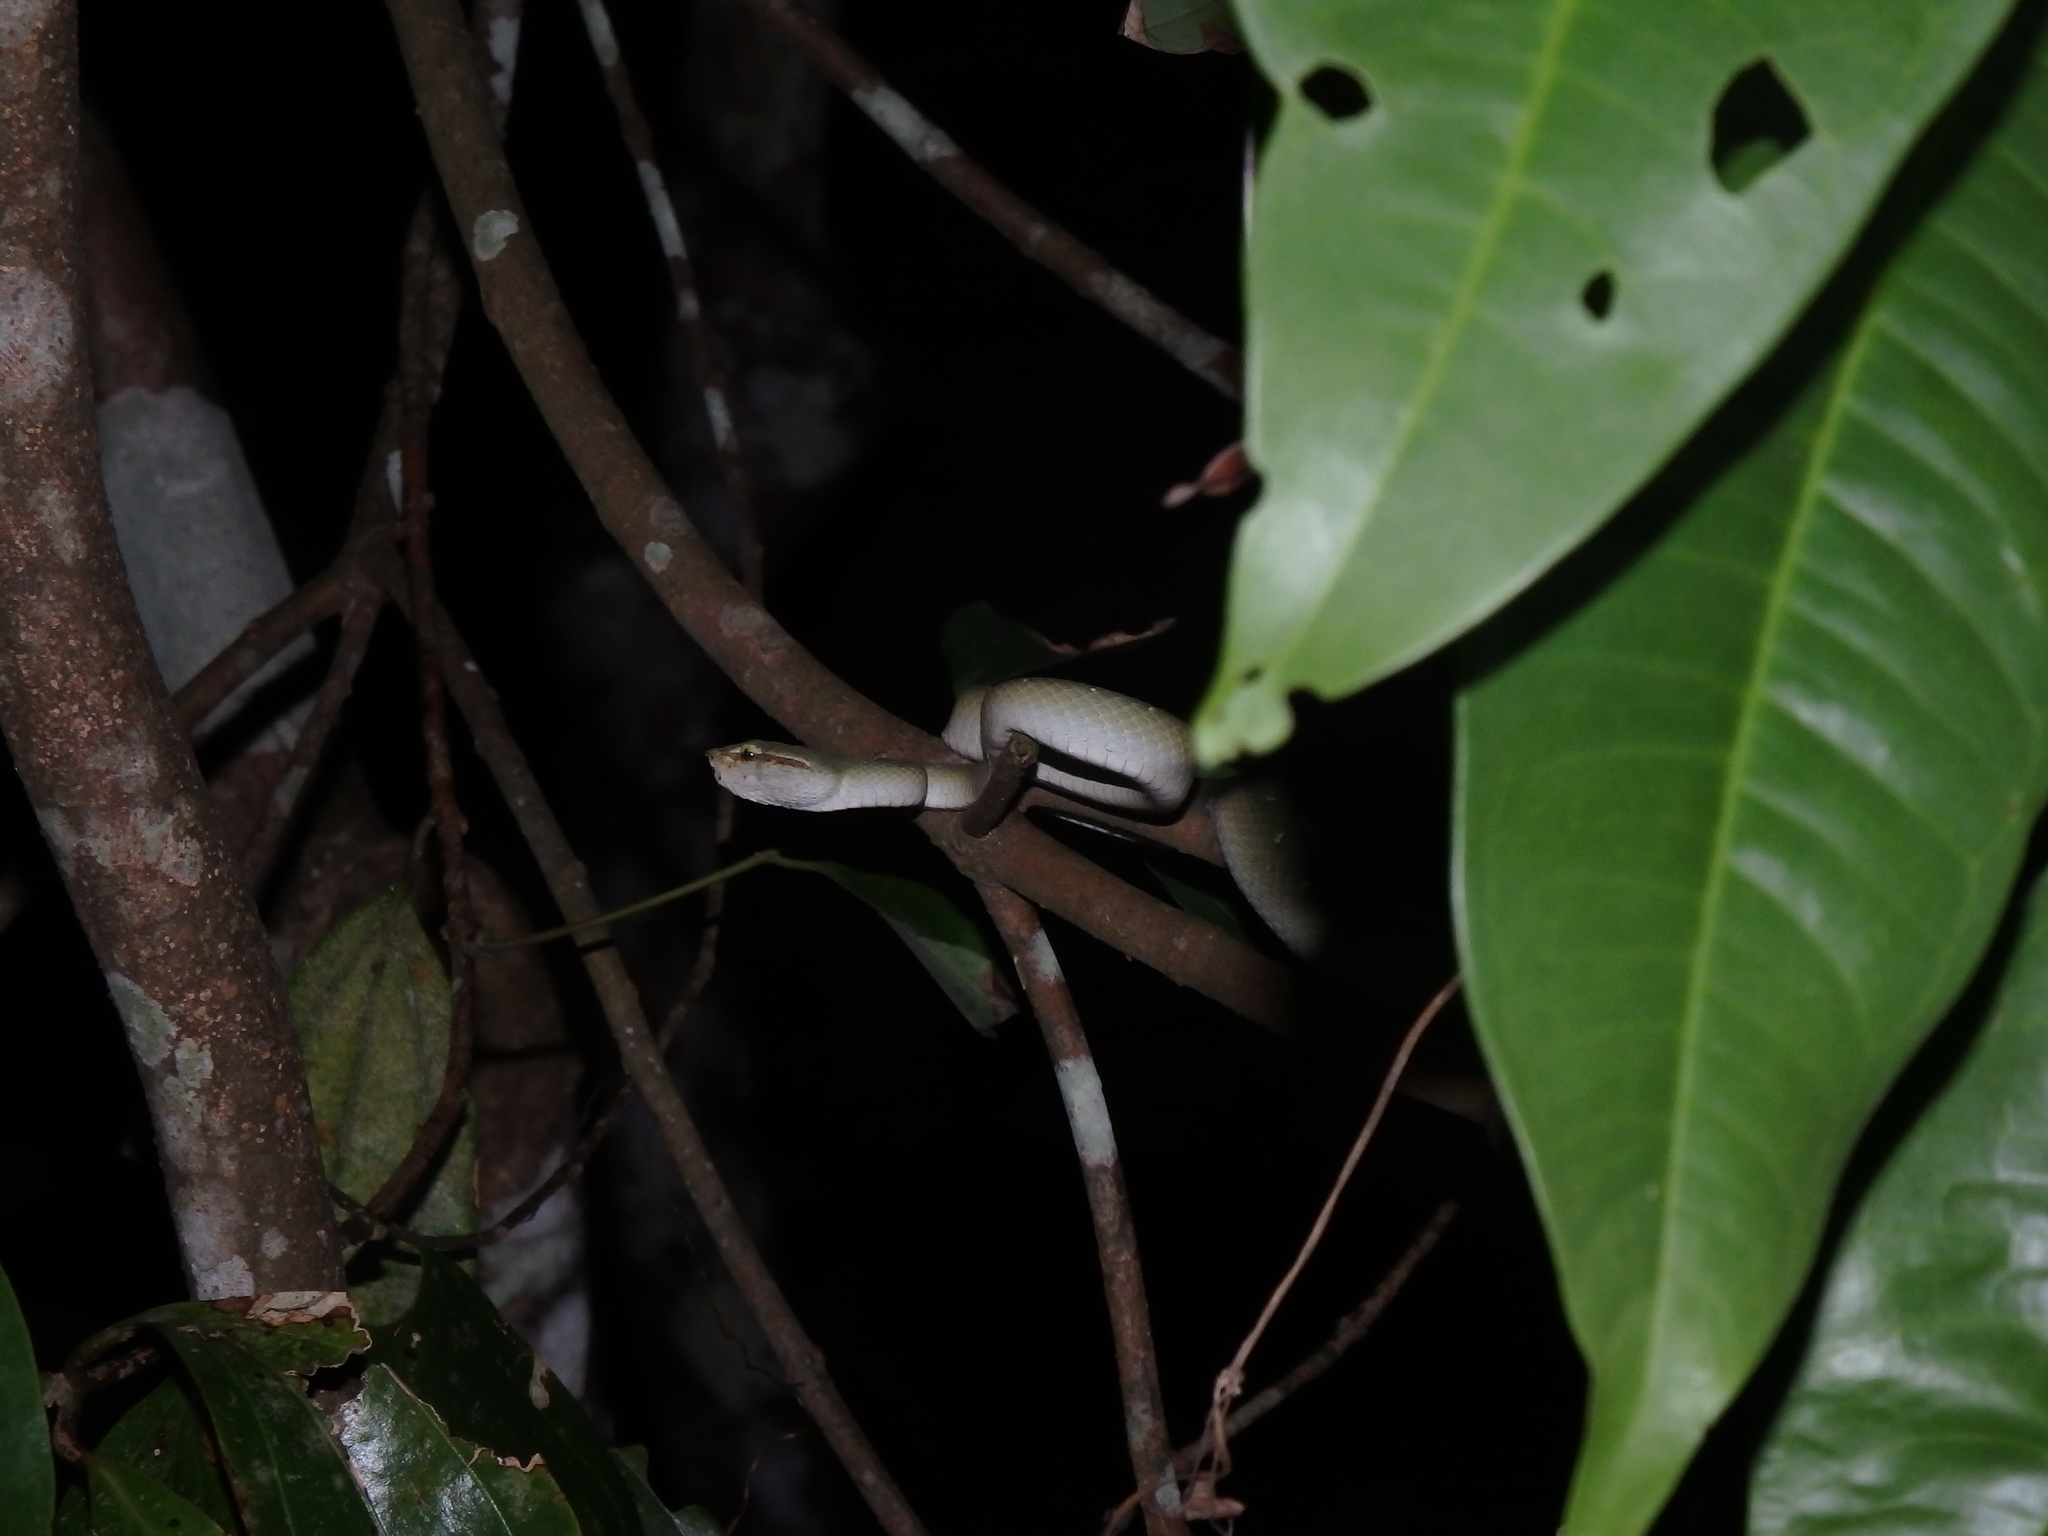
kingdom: Animalia
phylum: Chordata
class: Squamata
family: Viperidae
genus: Tropidolaemus
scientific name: Tropidolaemus wagleri
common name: Wagler's palm viper
